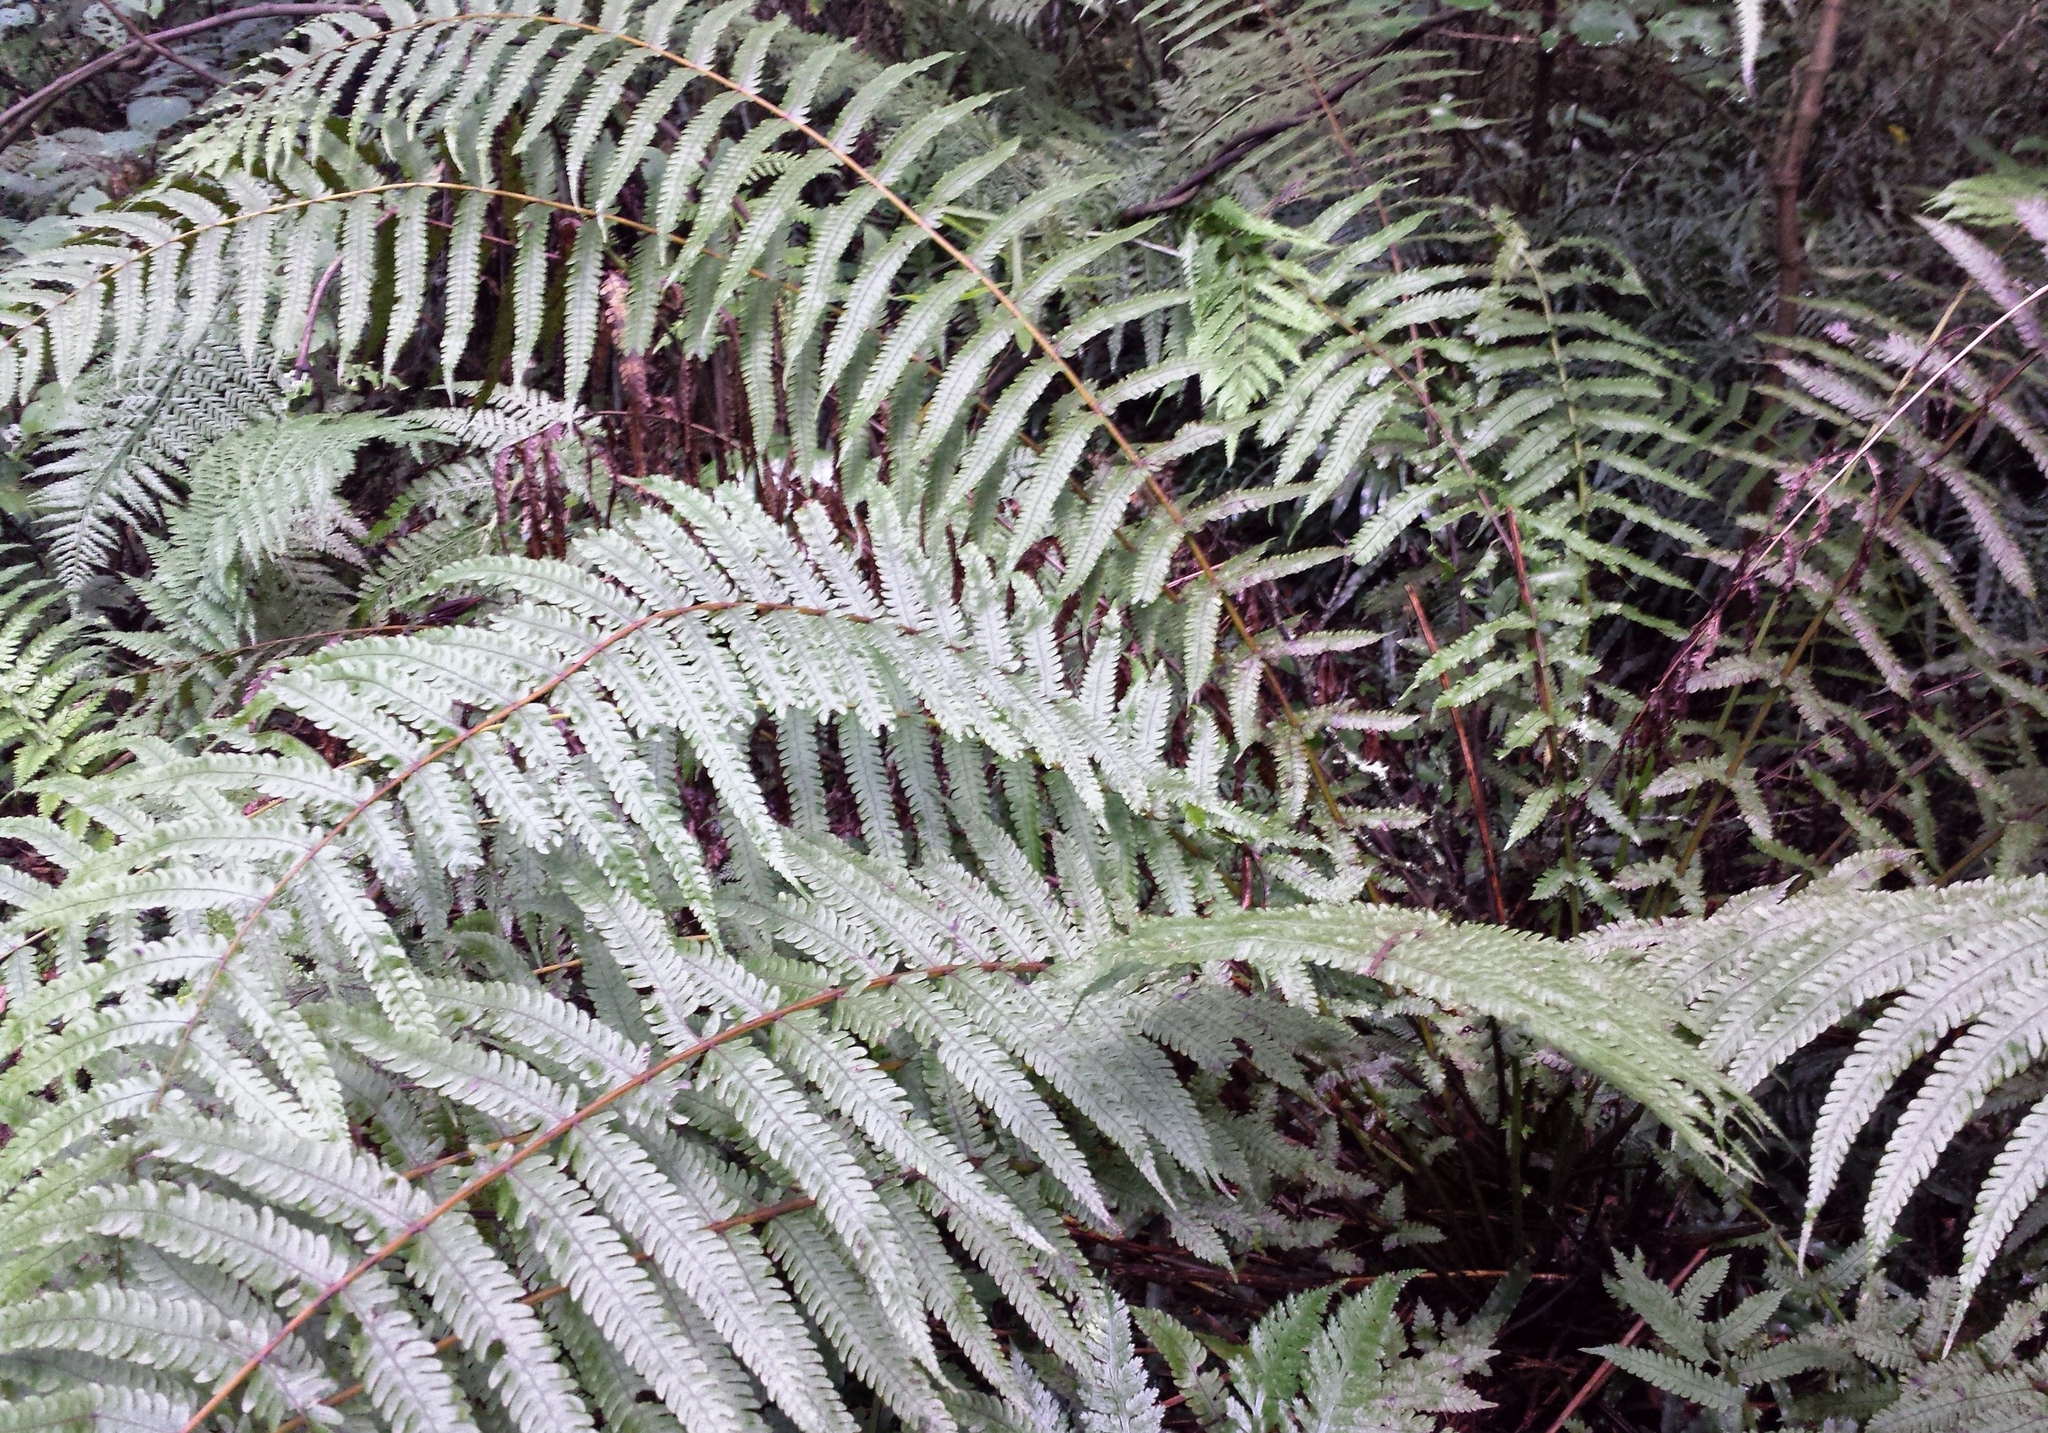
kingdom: Plantae
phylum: Tracheophyta
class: Polypodiopsida
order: Polypodiales
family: Thelypteridaceae
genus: Pakau
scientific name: Pakau pennigera
